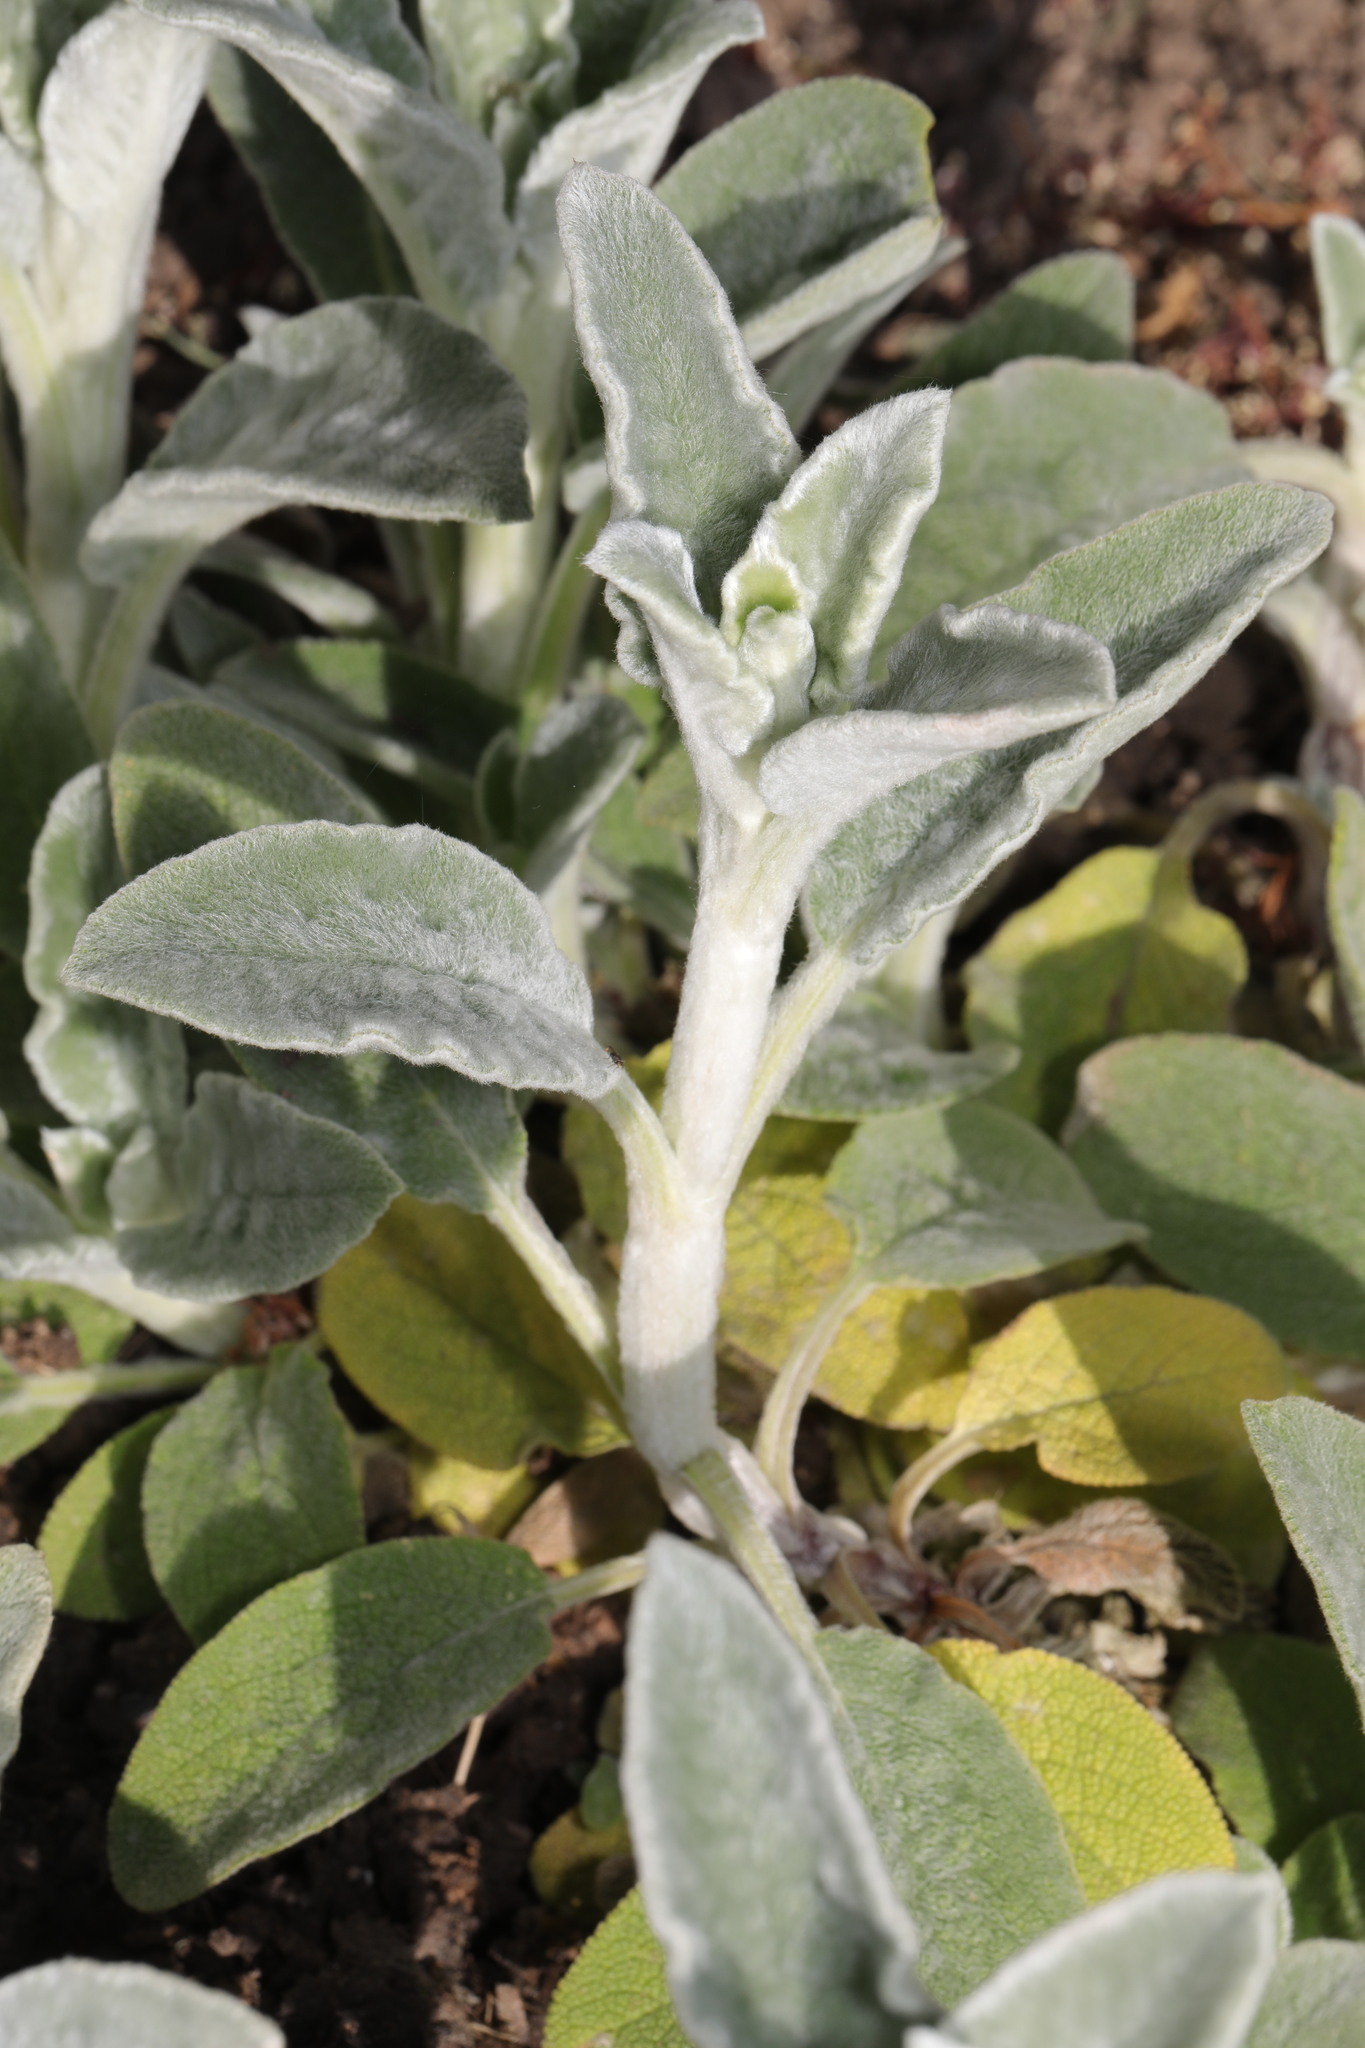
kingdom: Plantae
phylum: Tracheophyta
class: Magnoliopsida
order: Lamiales
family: Lamiaceae
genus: Stachys
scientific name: Stachys byzantina
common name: Lamb's-ear
